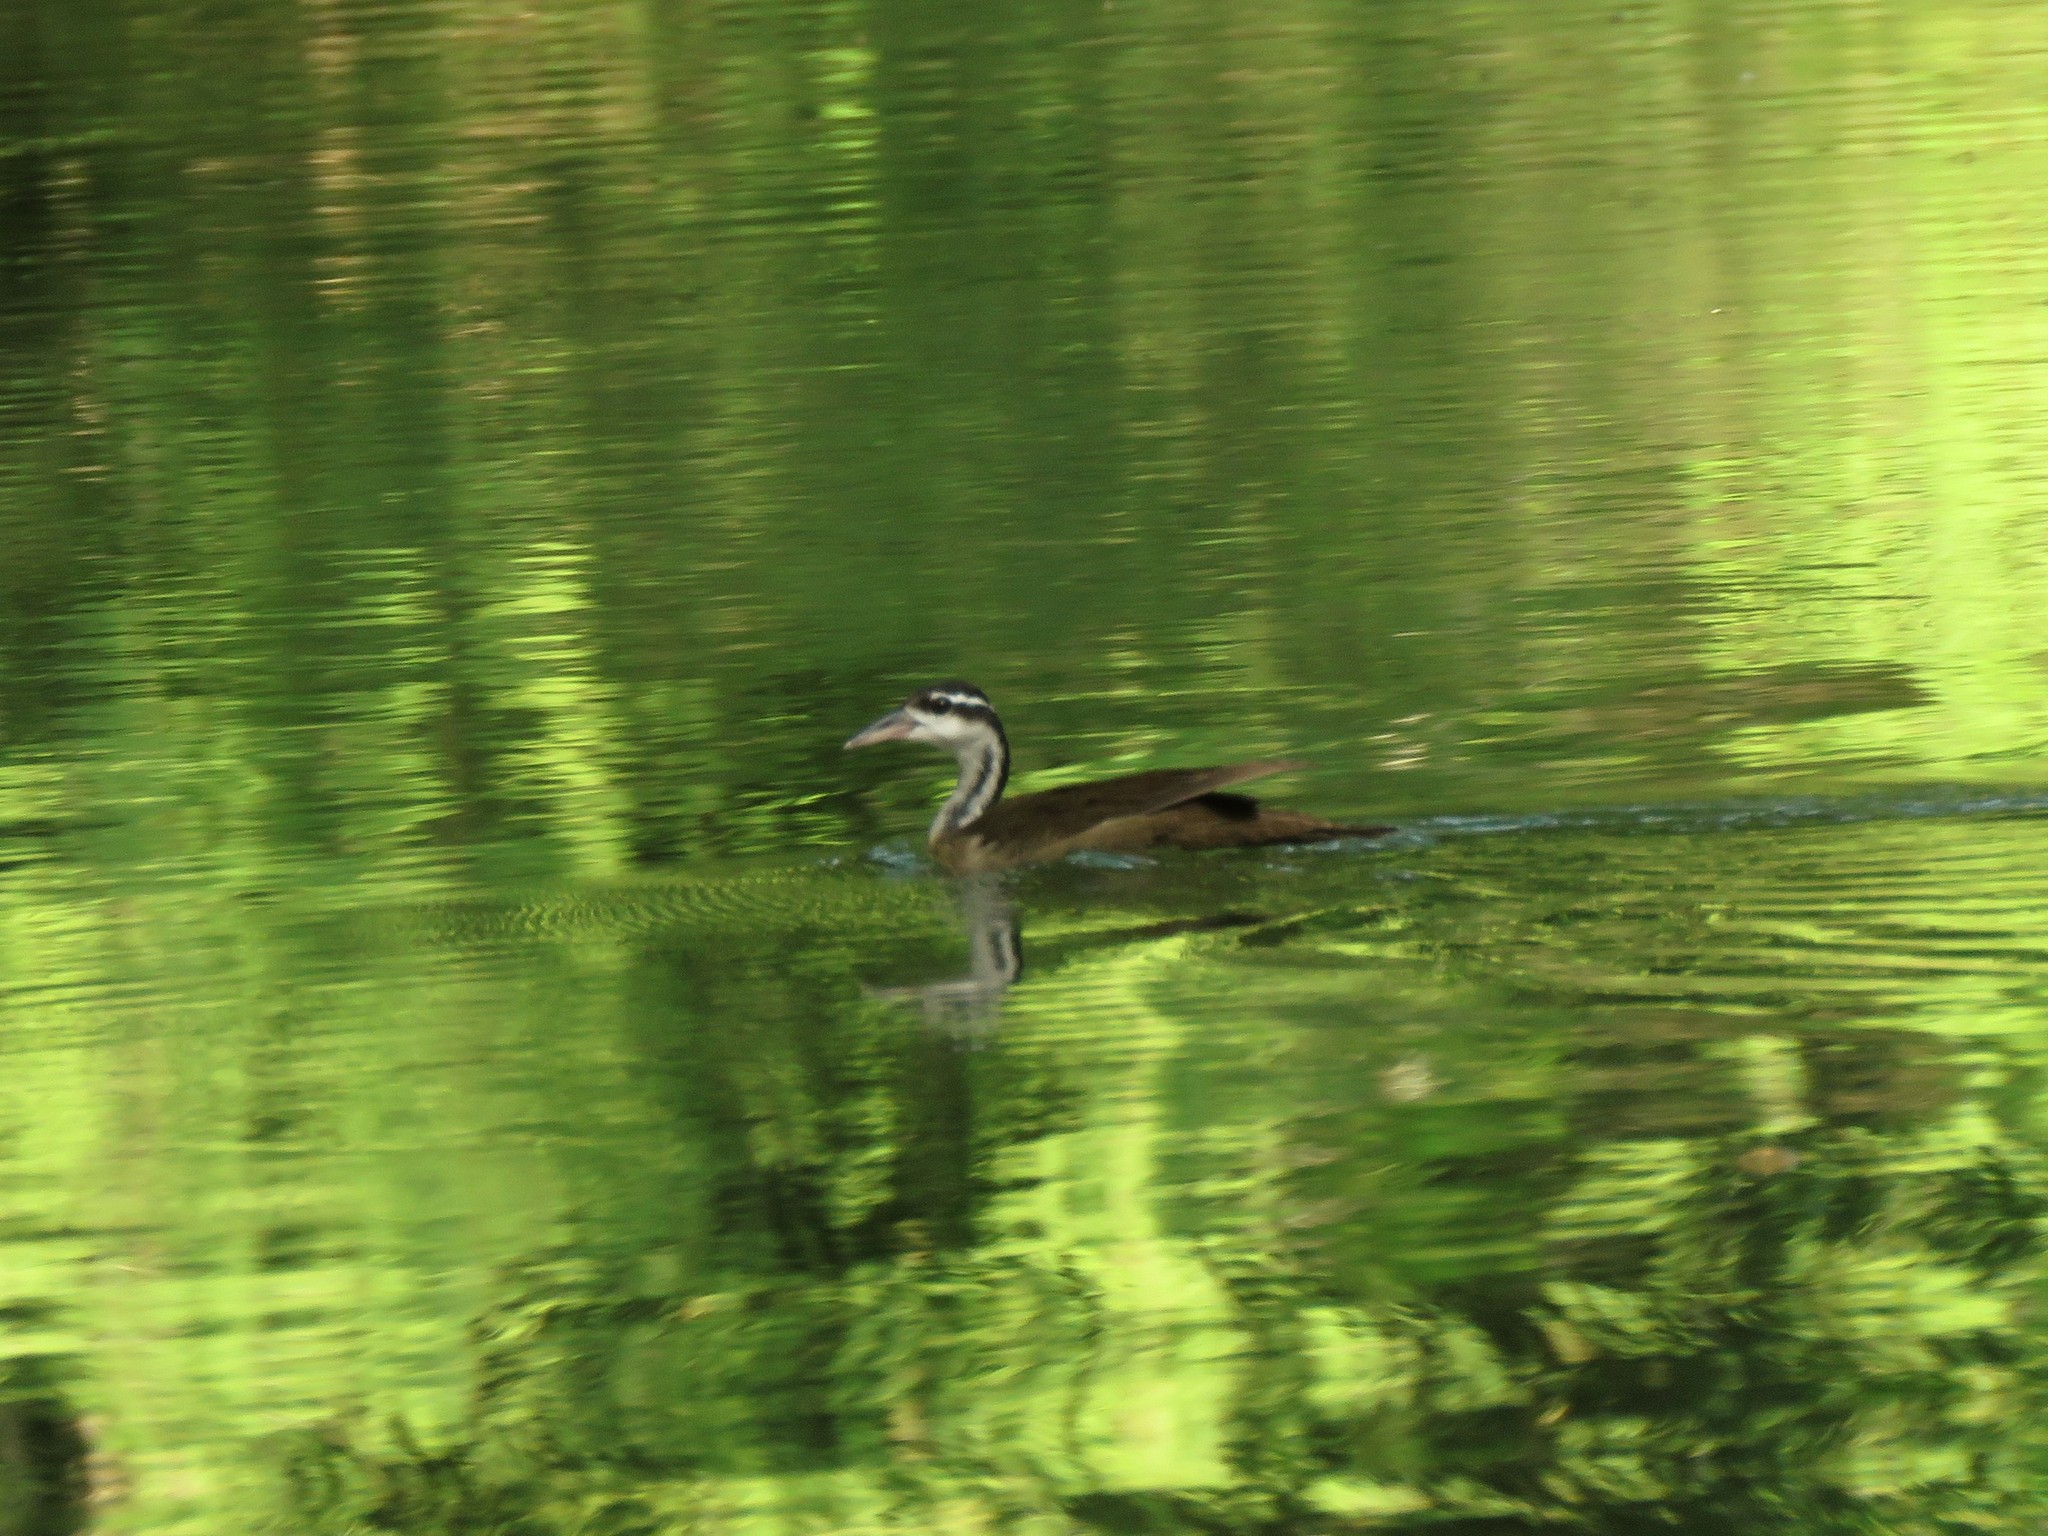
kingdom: Animalia
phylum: Chordata
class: Aves
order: Gruiformes
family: Heliornithidae
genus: Heliornis
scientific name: Heliornis fulica
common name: Sungrebe
